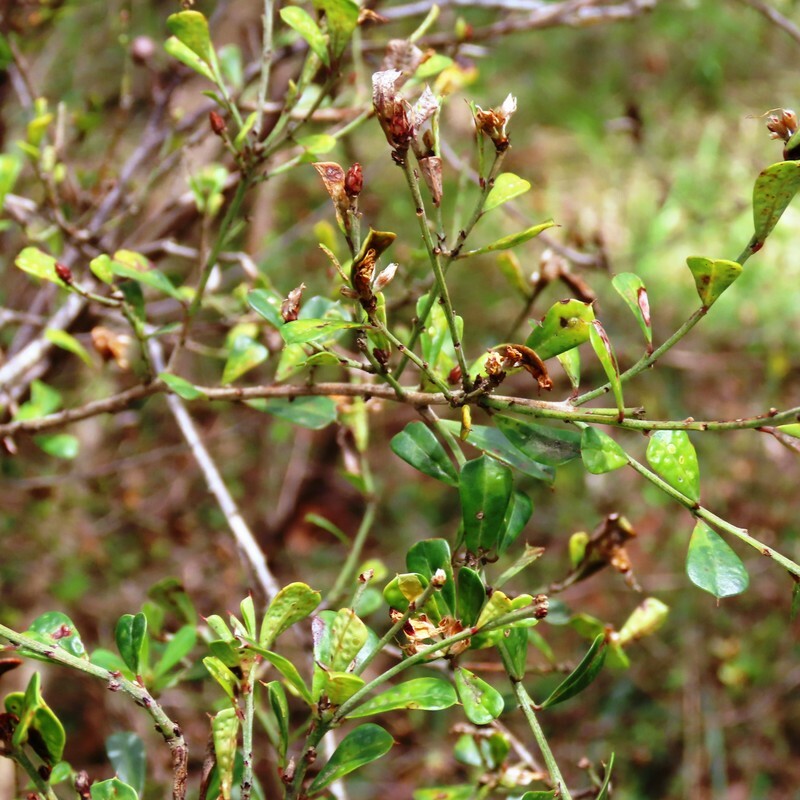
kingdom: Plantae
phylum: Tracheophyta
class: Magnoliopsida
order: Fabales
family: Fabaceae
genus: Pultenaea
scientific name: Pultenaea daphnoides
